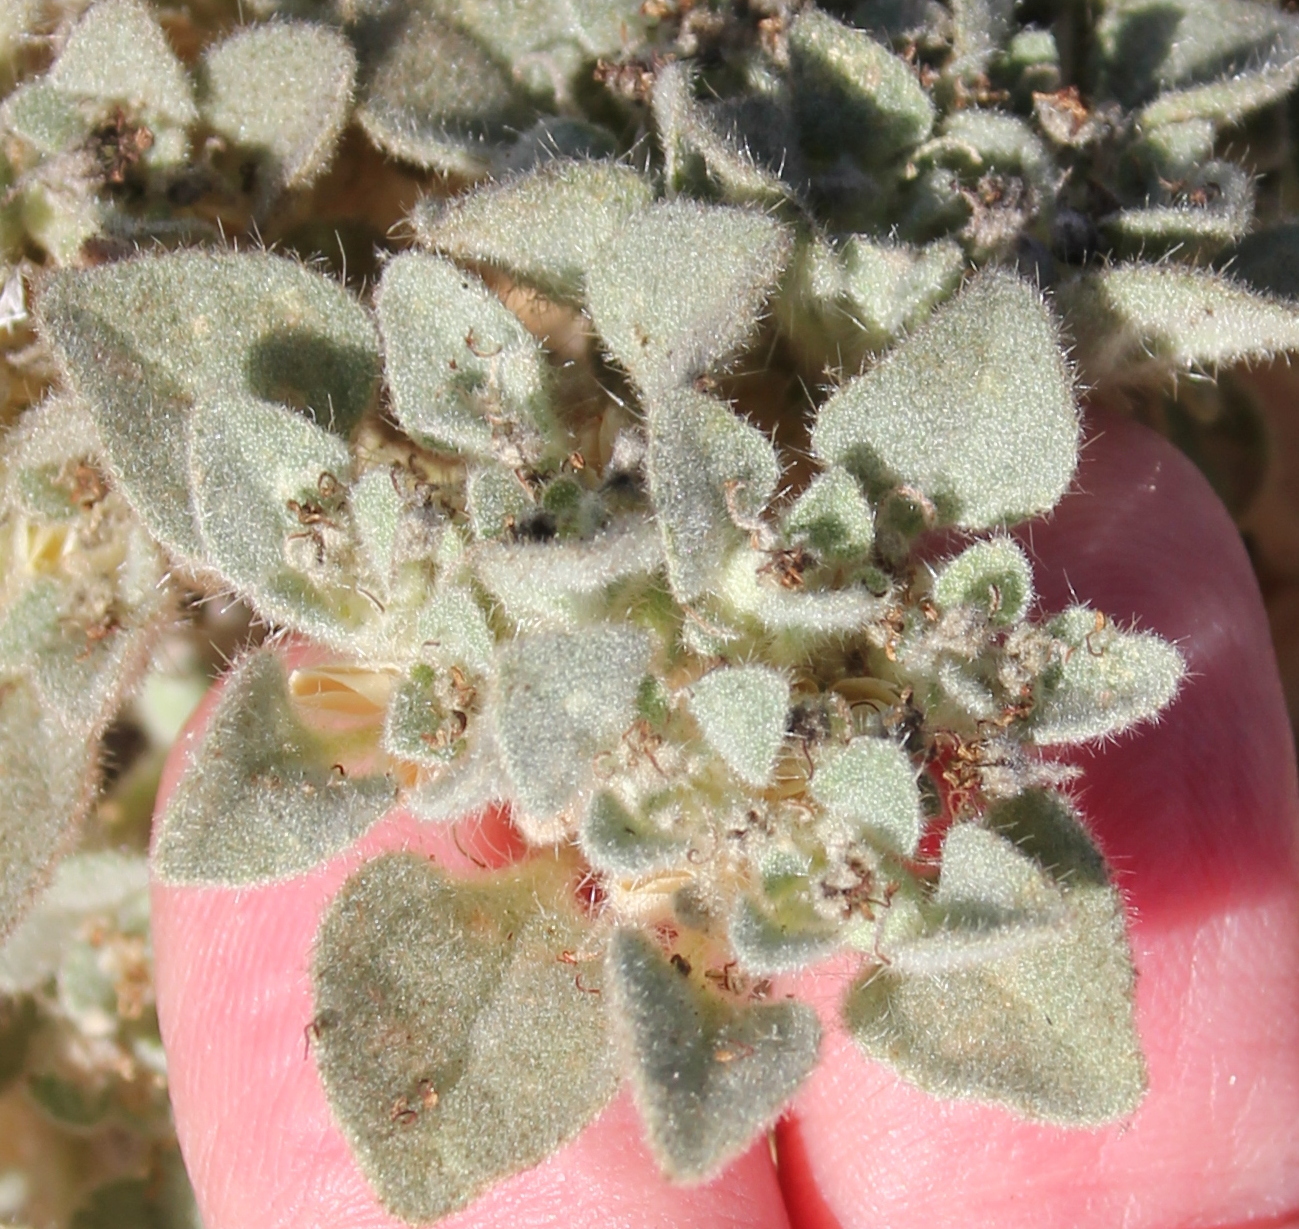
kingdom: Plantae
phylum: Tracheophyta
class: Magnoliopsida
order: Malpighiales
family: Euphorbiaceae
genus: Croton
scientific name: Croton setiger
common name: Dove weed
